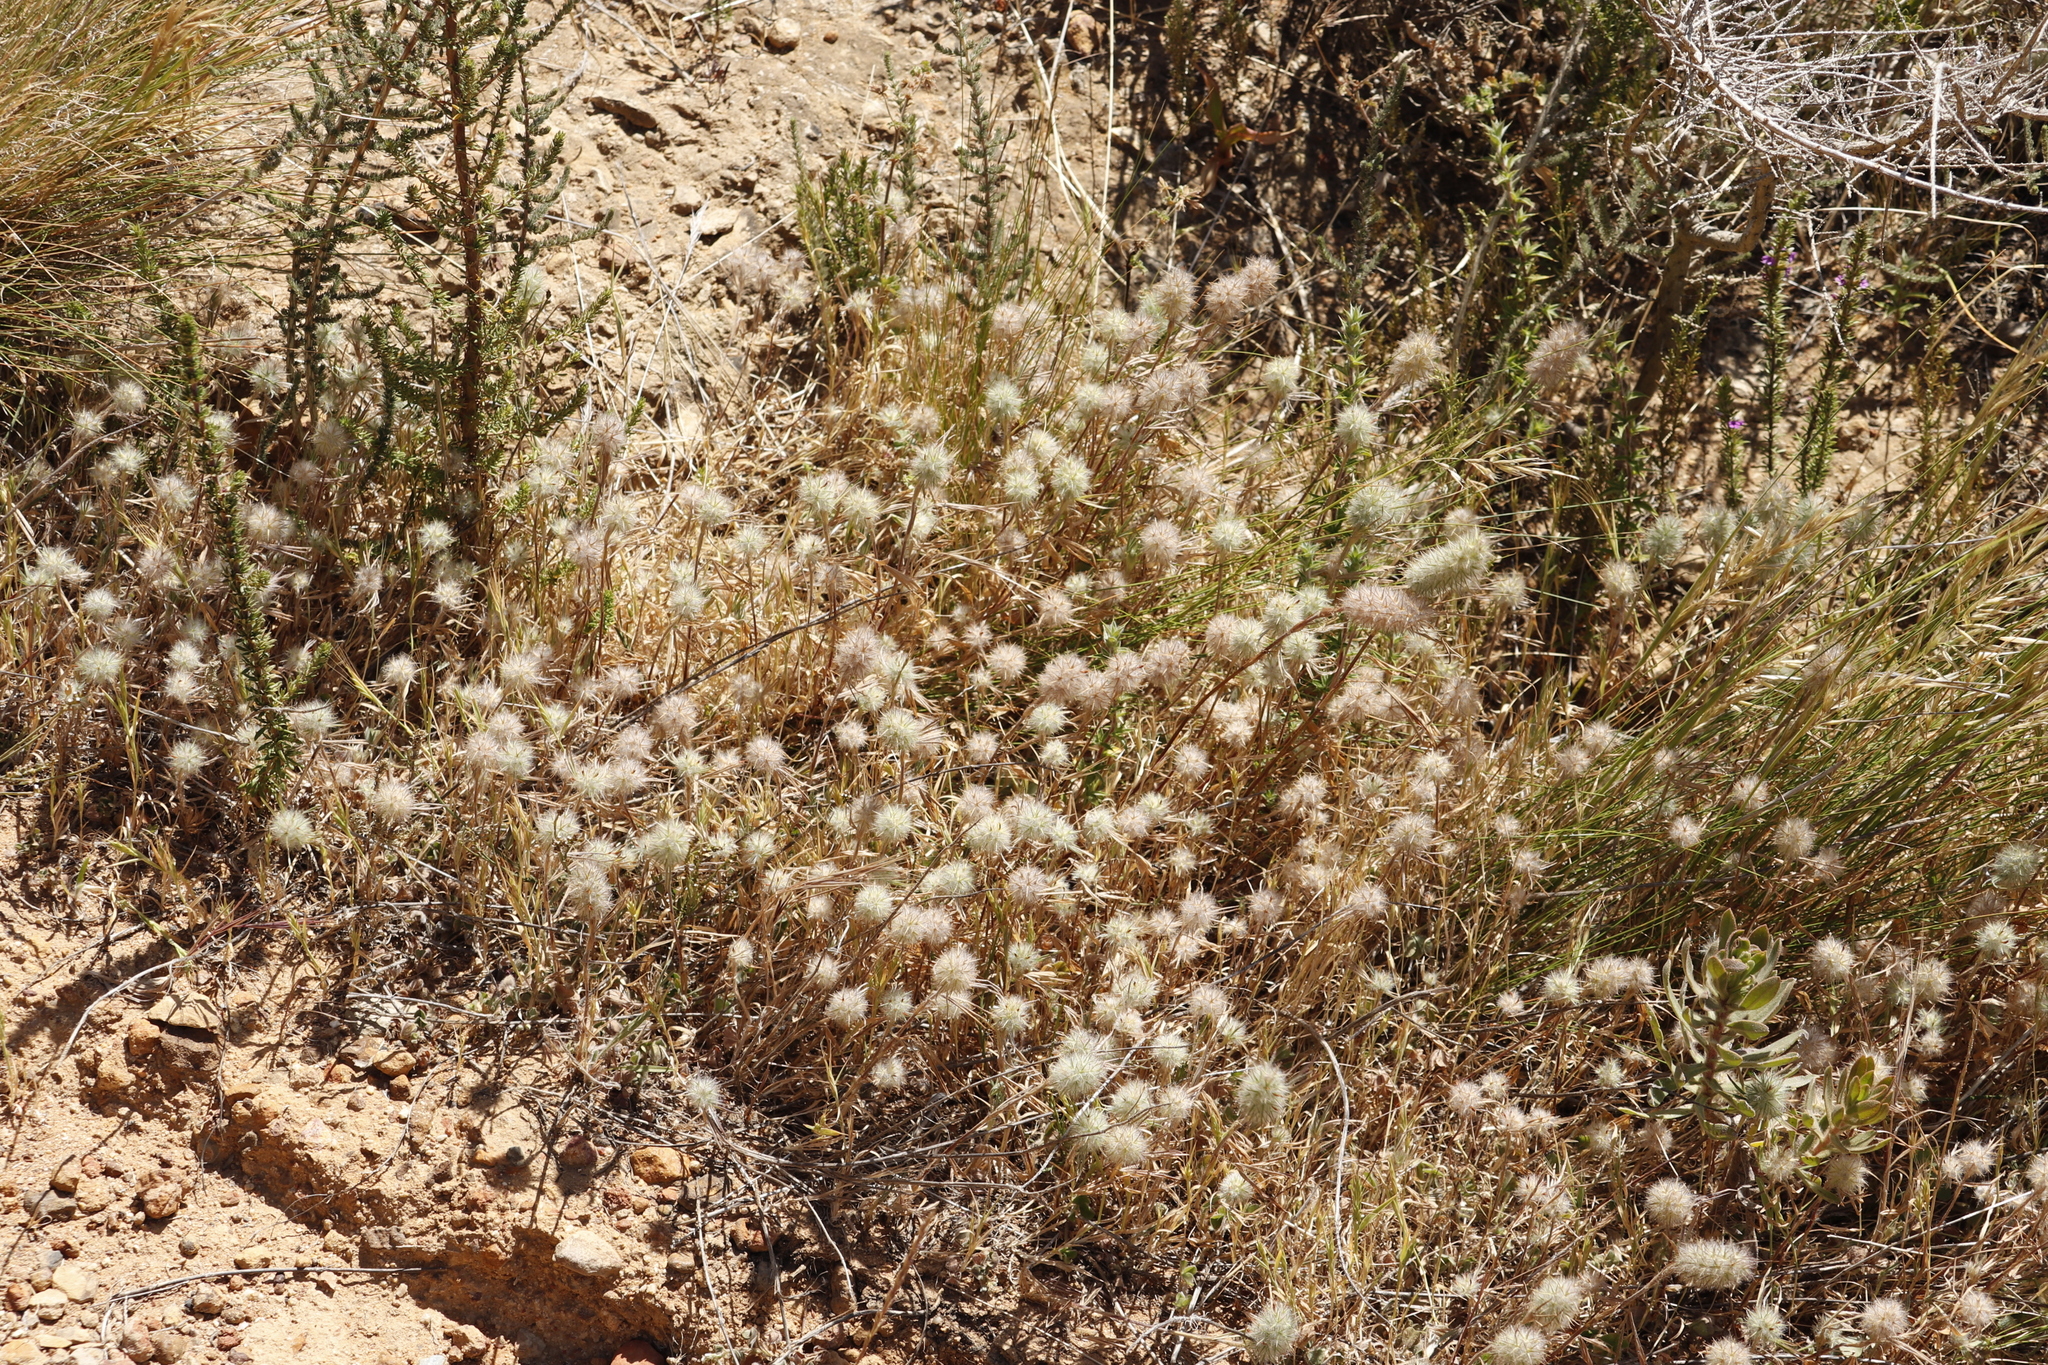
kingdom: Plantae
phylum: Tracheophyta
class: Magnoliopsida
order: Fabales
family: Fabaceae
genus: Trifolium
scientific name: Trifolium angustifolium
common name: Narrow clover
